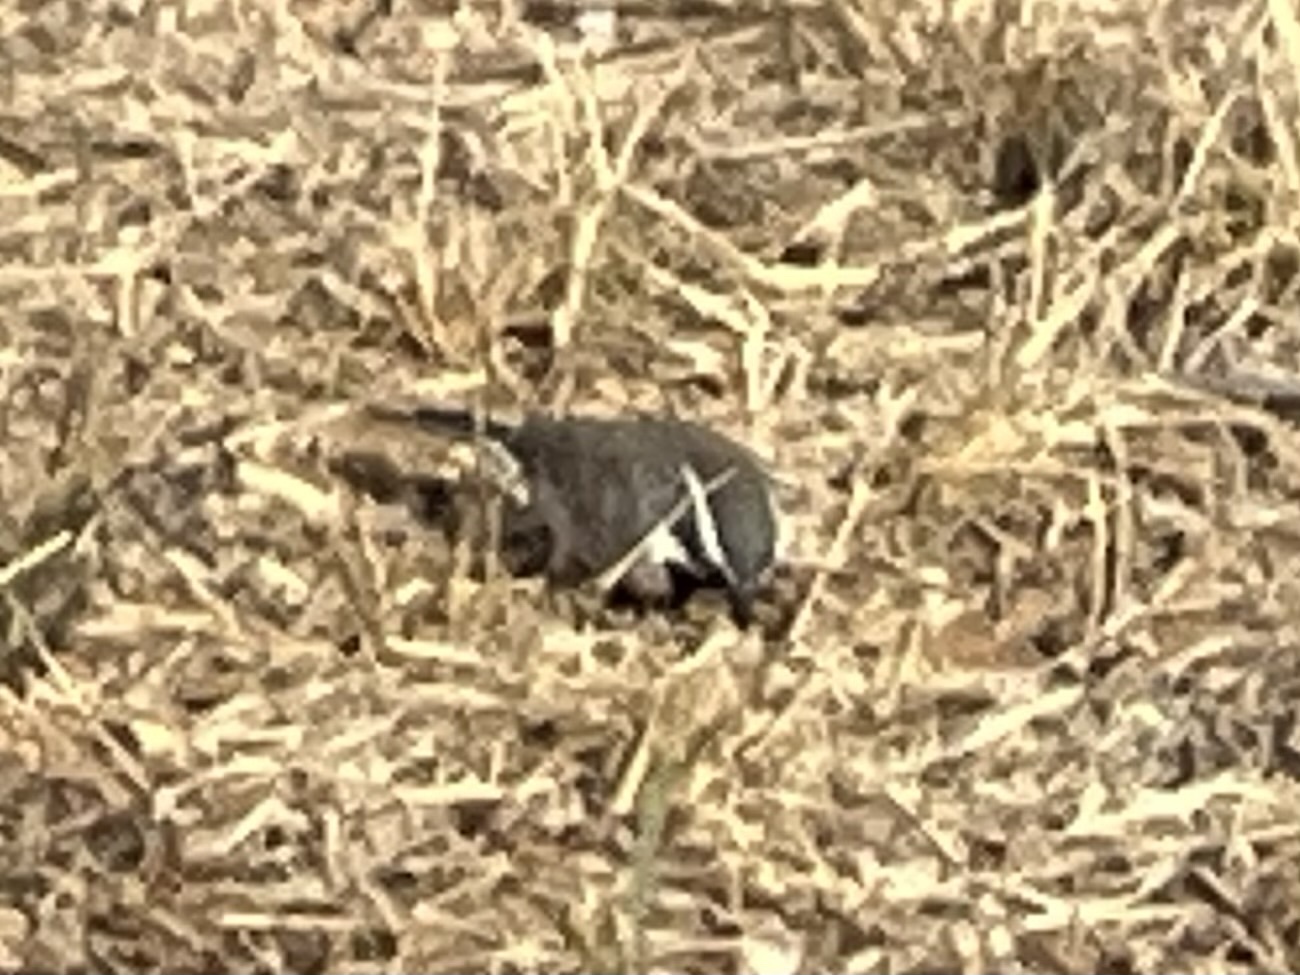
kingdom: Animalia
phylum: Chordata
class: Aves
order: Passeriformes
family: Passerellidae
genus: Amphispiza
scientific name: Amphispiza bilineata
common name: Black-throated sparrow
